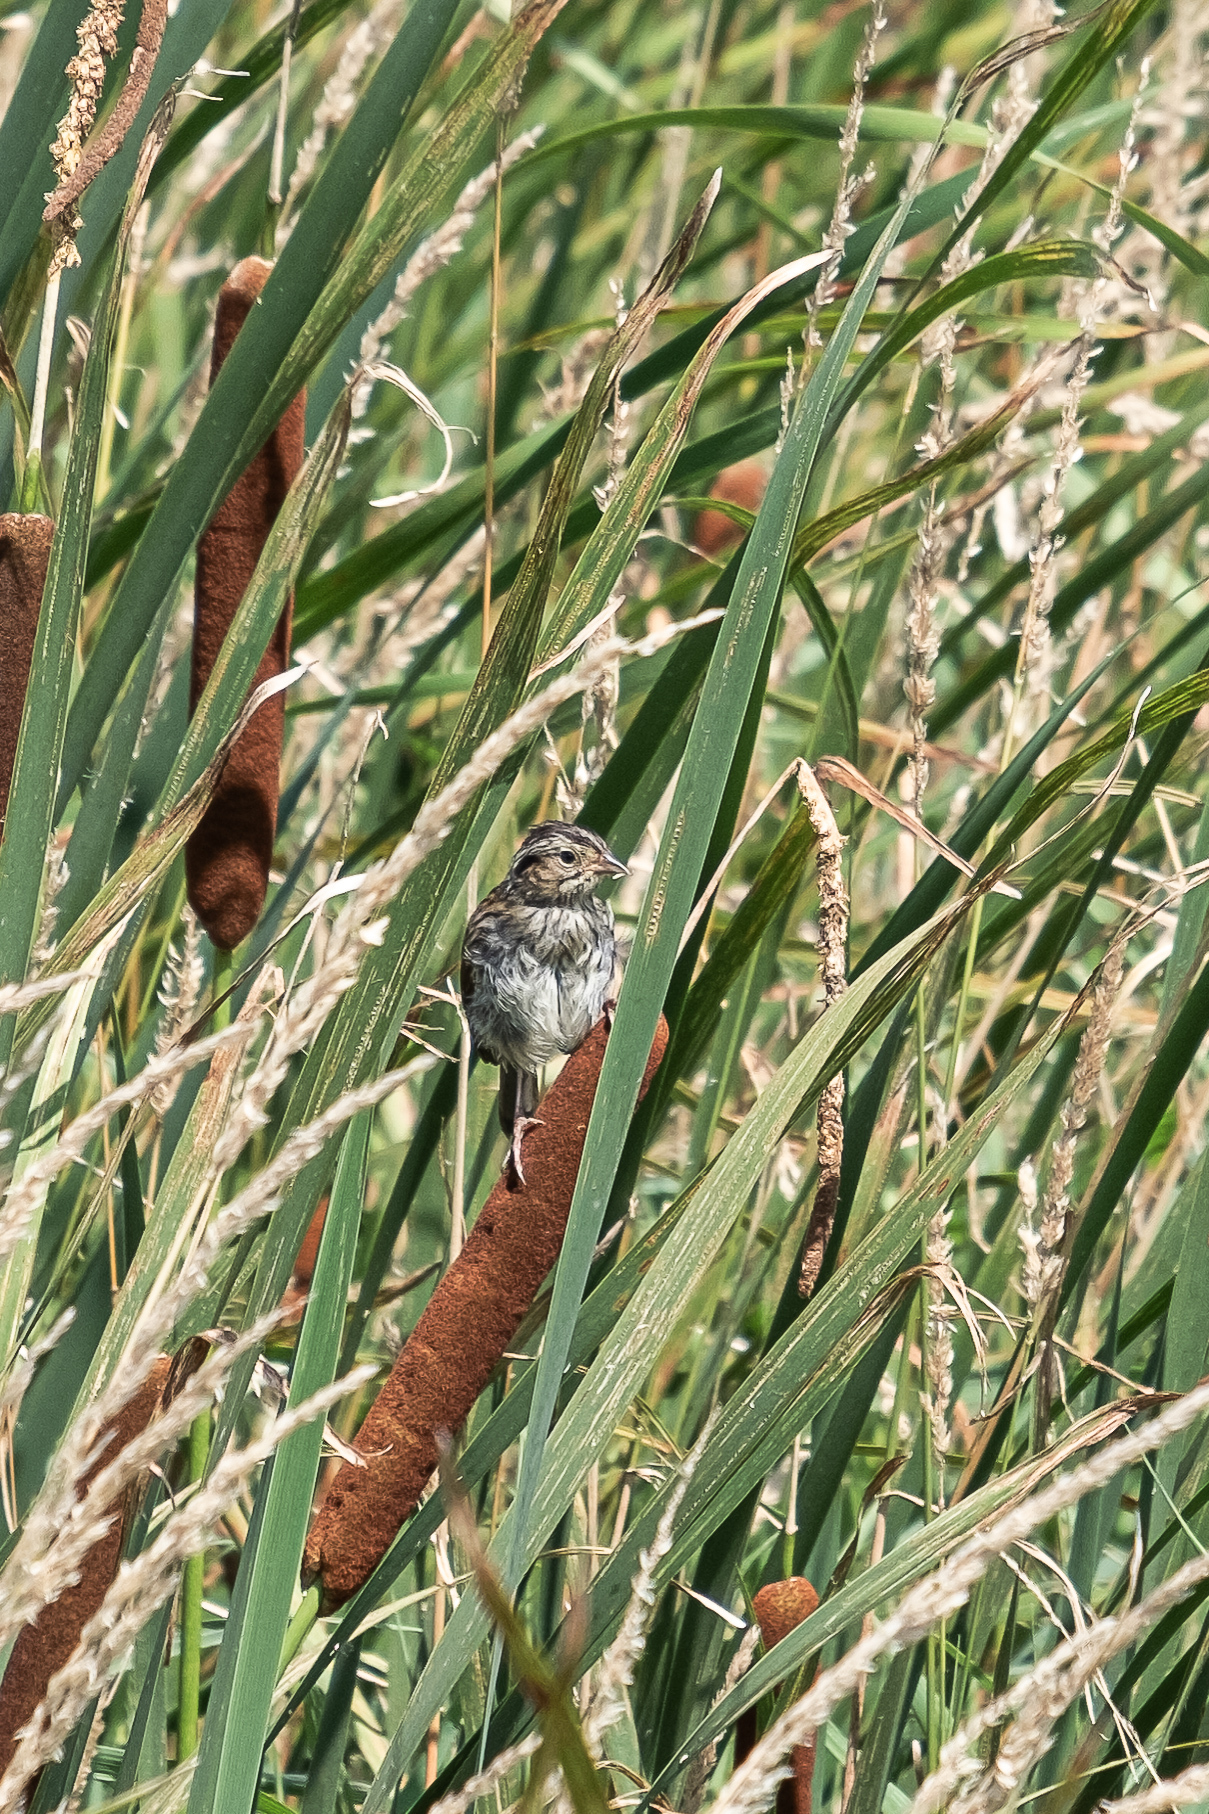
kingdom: Animalia
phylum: Chordata
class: Aves
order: Passeriformes
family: Passerellidae
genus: Melospiza
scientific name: Melospiza georgiana
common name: Swamp sparrow
